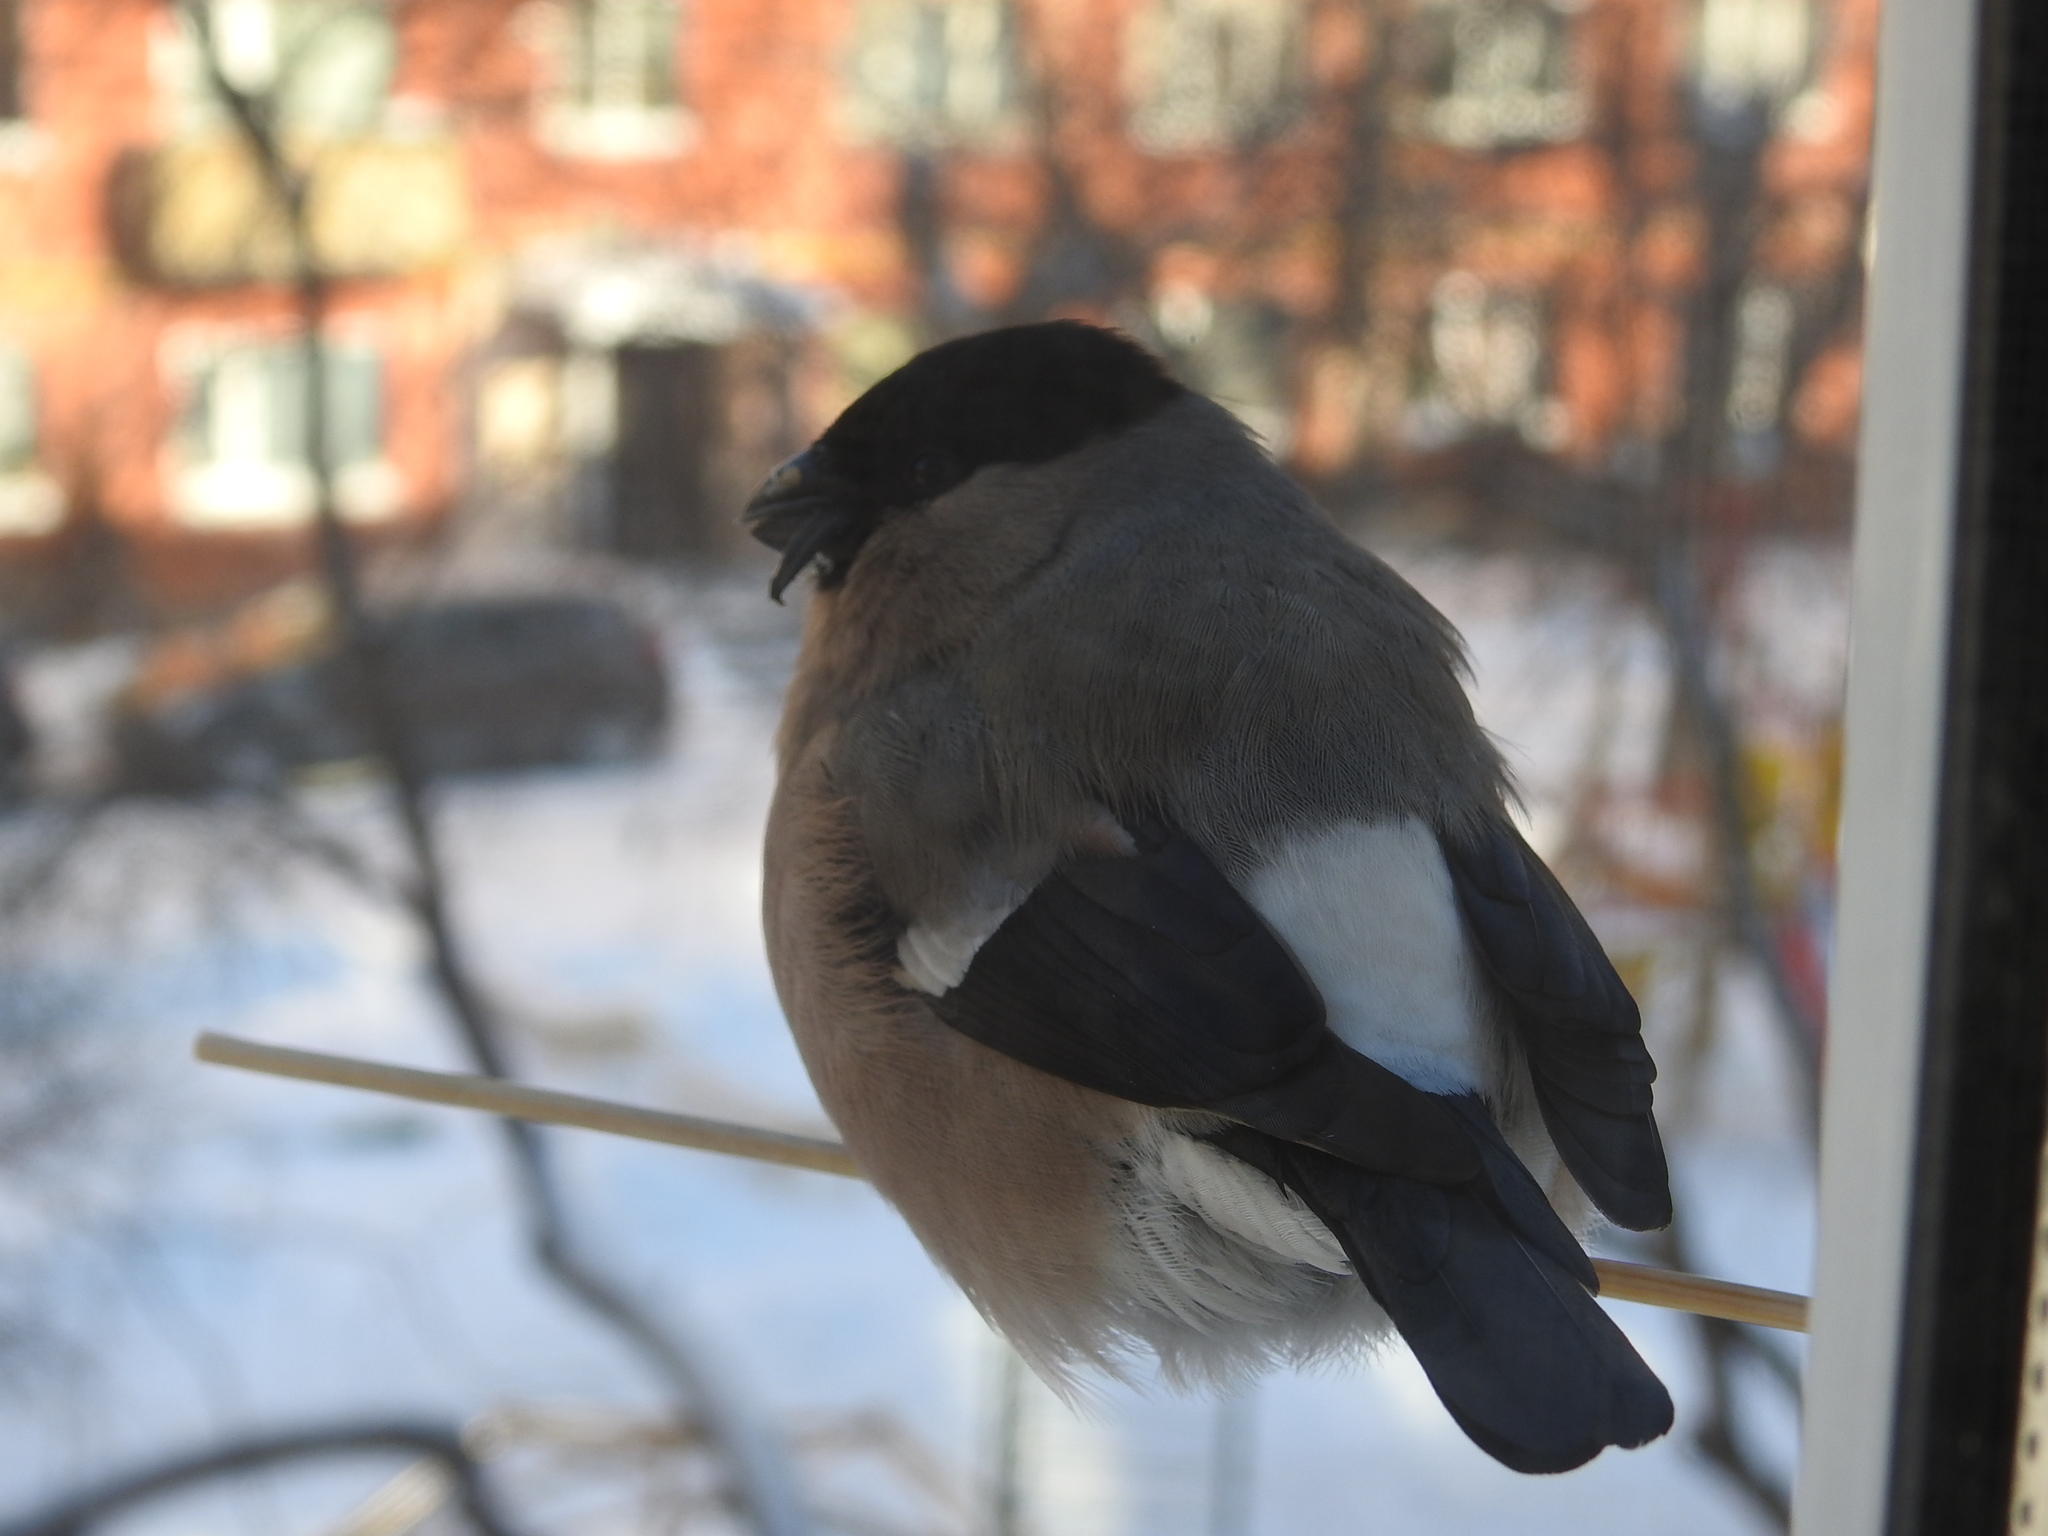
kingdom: Animalia
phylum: Chordata
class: Aves
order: Passeriformes
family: Fringillidae
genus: Pyrrhula
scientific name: Pyrrhula pyrrhula
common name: Eurasian bullfinch
